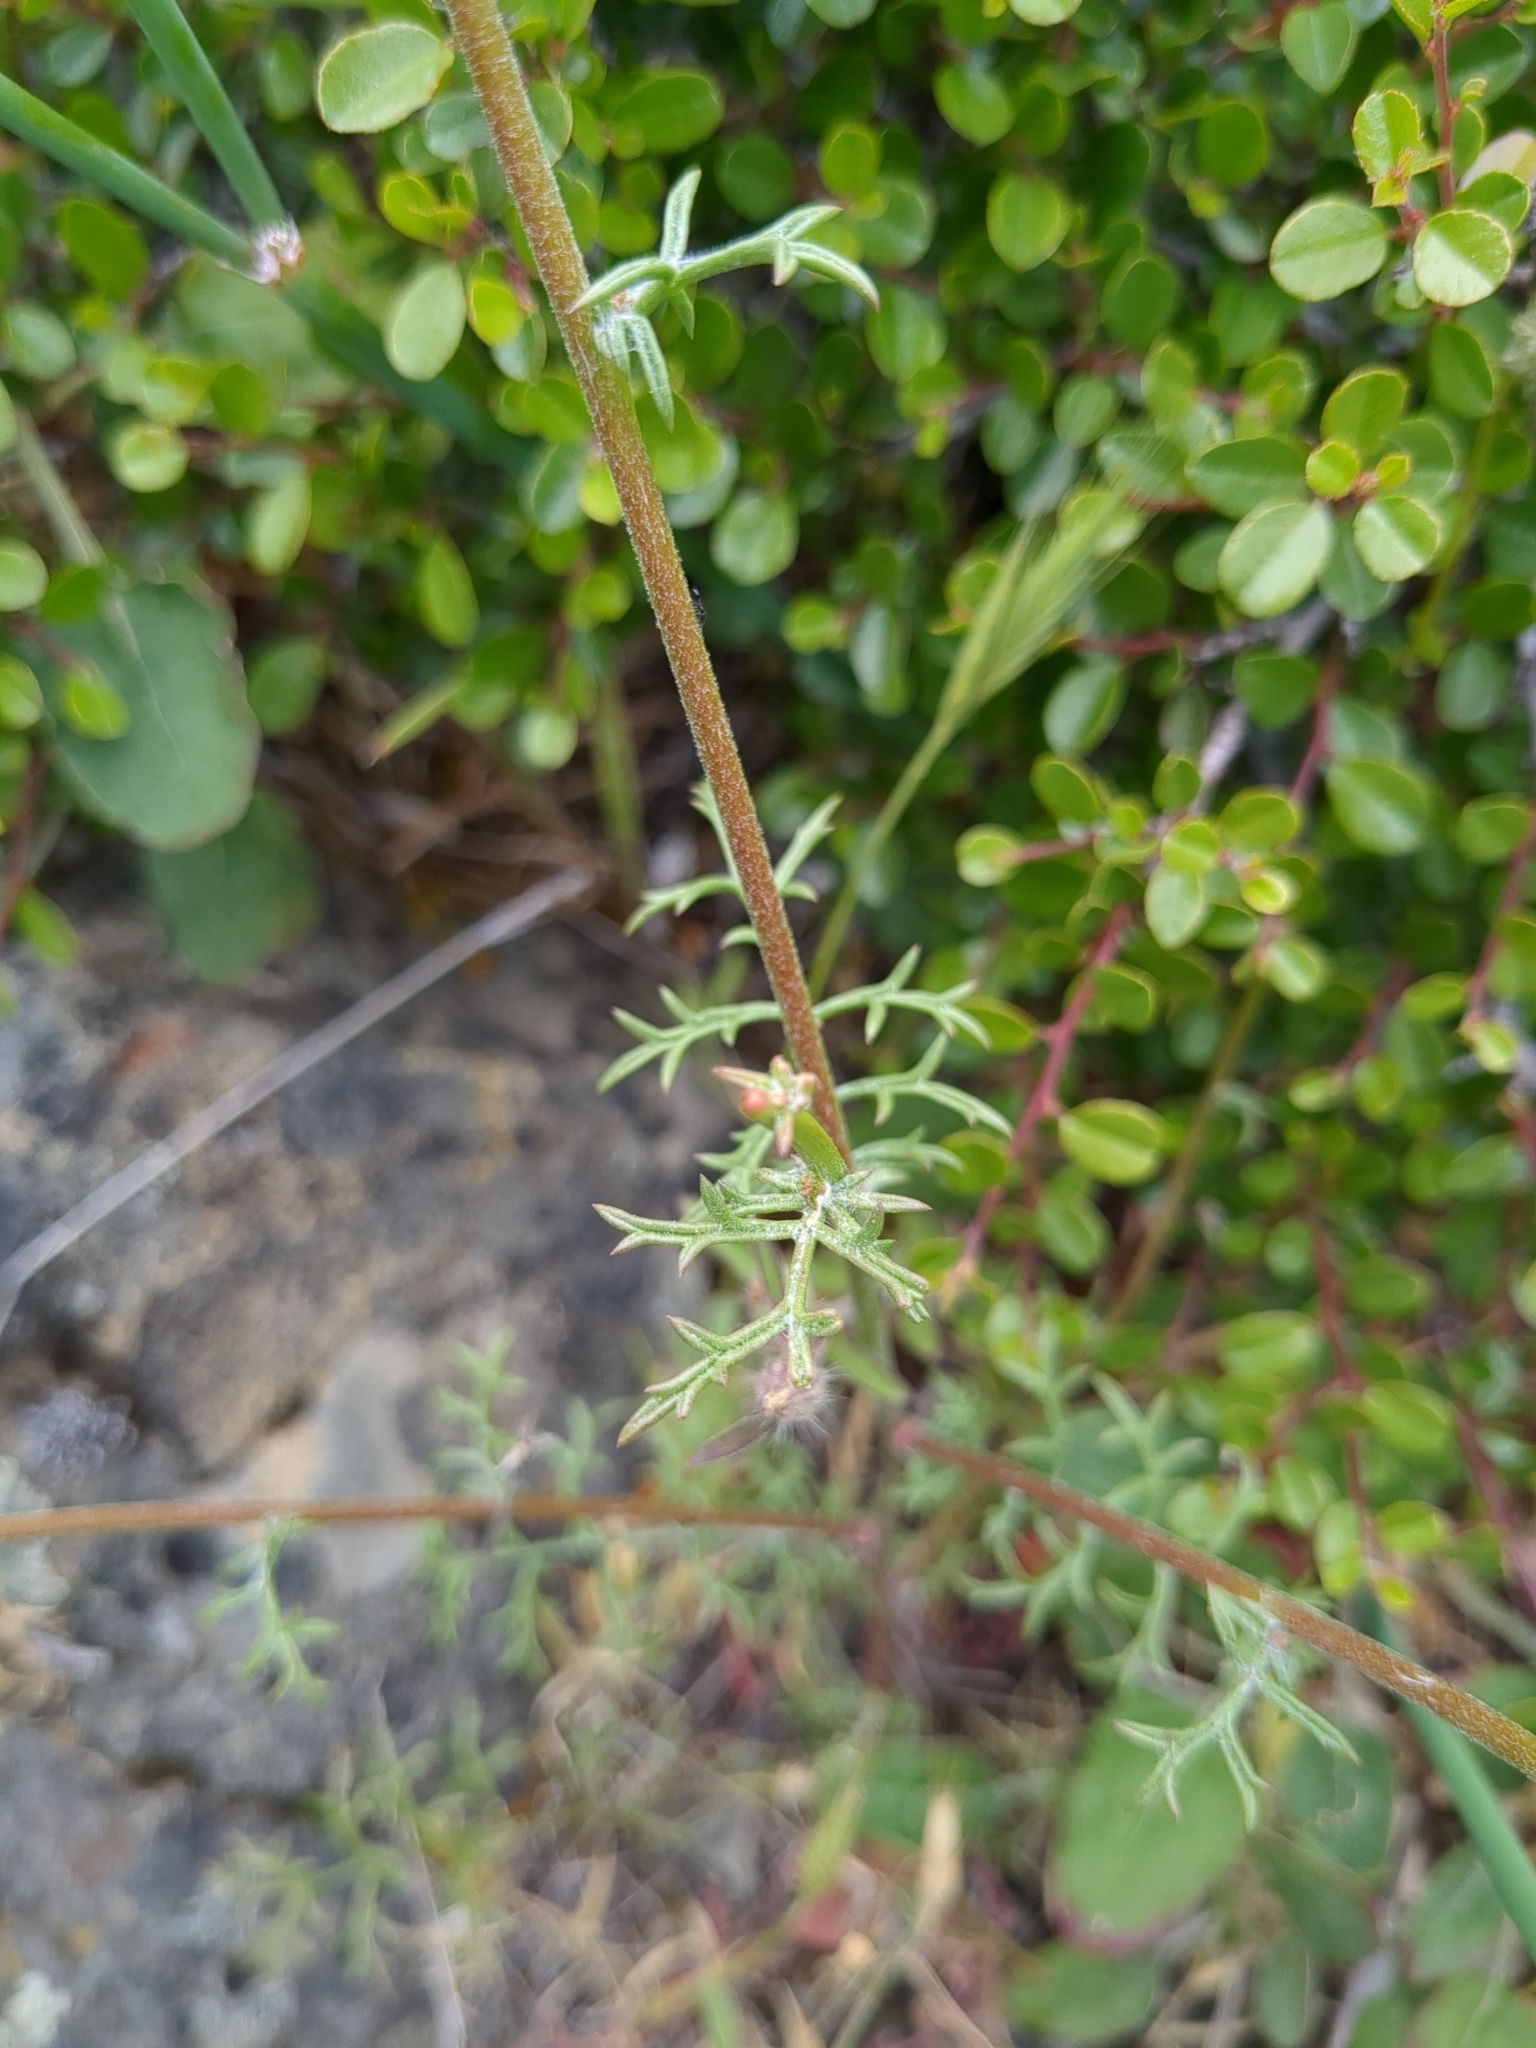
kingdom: Plantae
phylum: Tracheophyta
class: Magnoliopsida
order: Ericales
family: Polemoniaceae
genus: Gilia
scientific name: Gilia capitata
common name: Bluehead gilia
